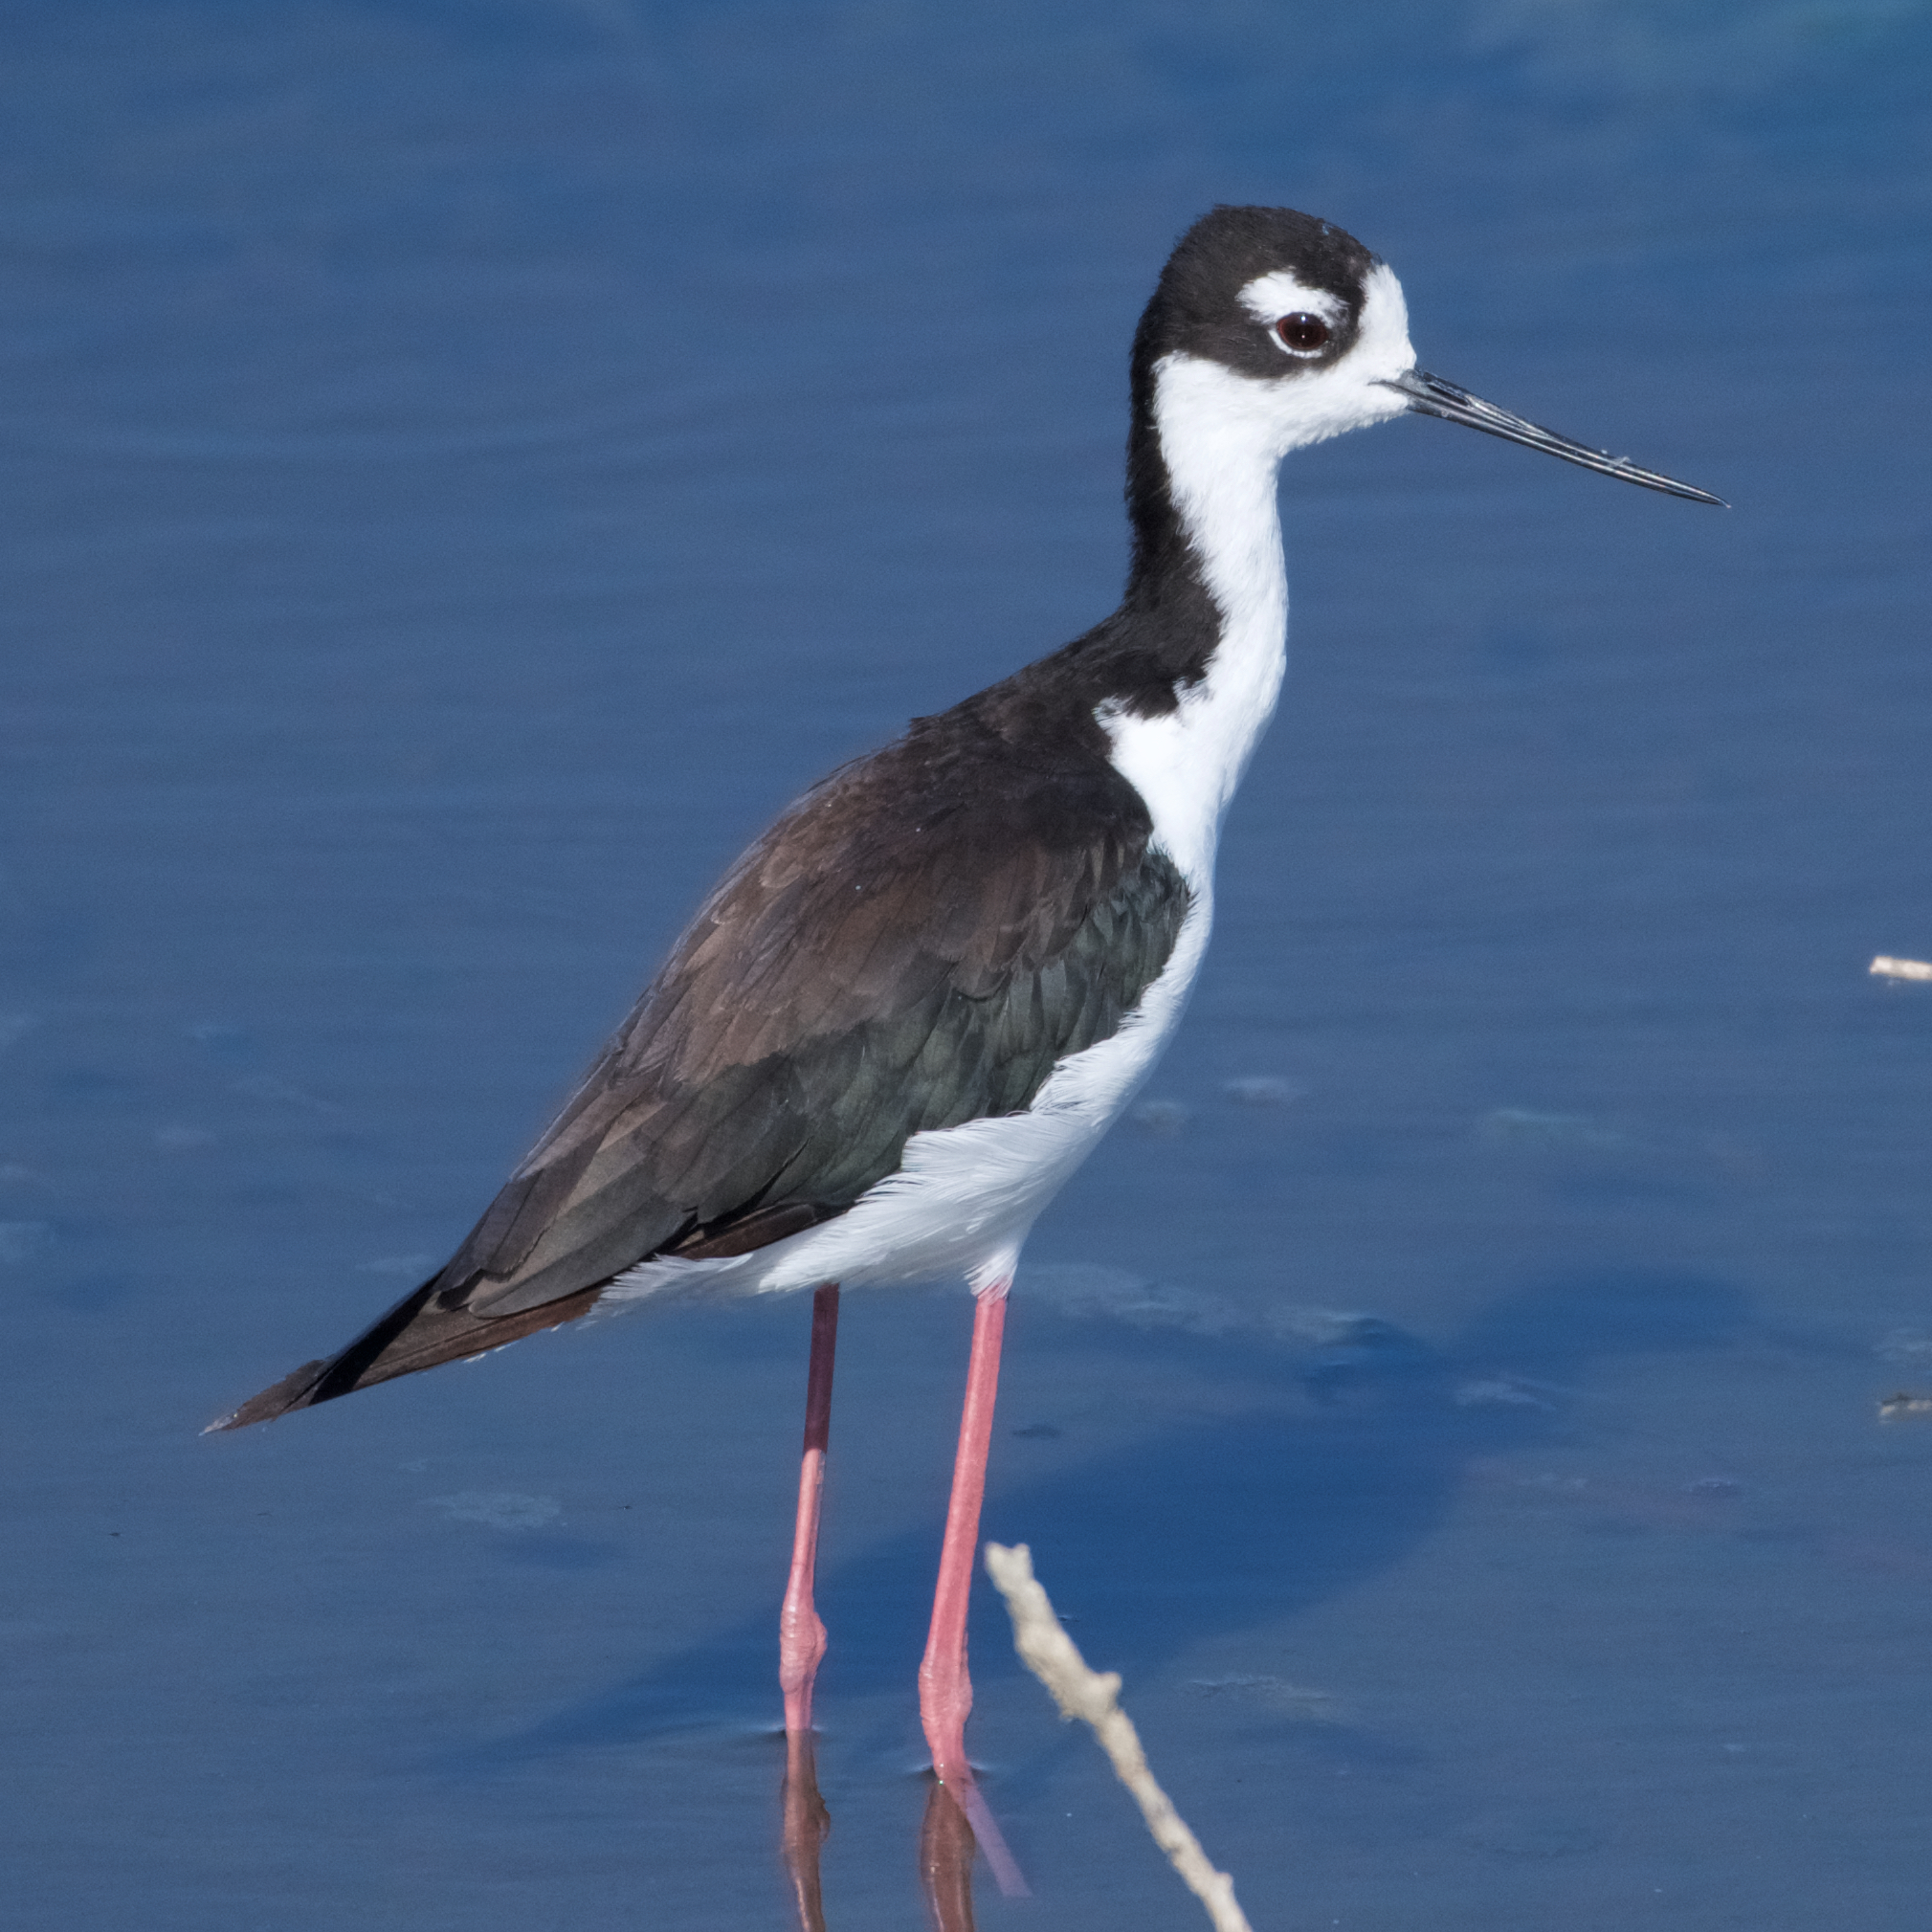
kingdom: Animalia
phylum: Chordata
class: Aves
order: Charadriiformes
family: Recurvirostridae
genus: Himantopus
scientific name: Himantopus mexicanus
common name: Black-necked stilt
